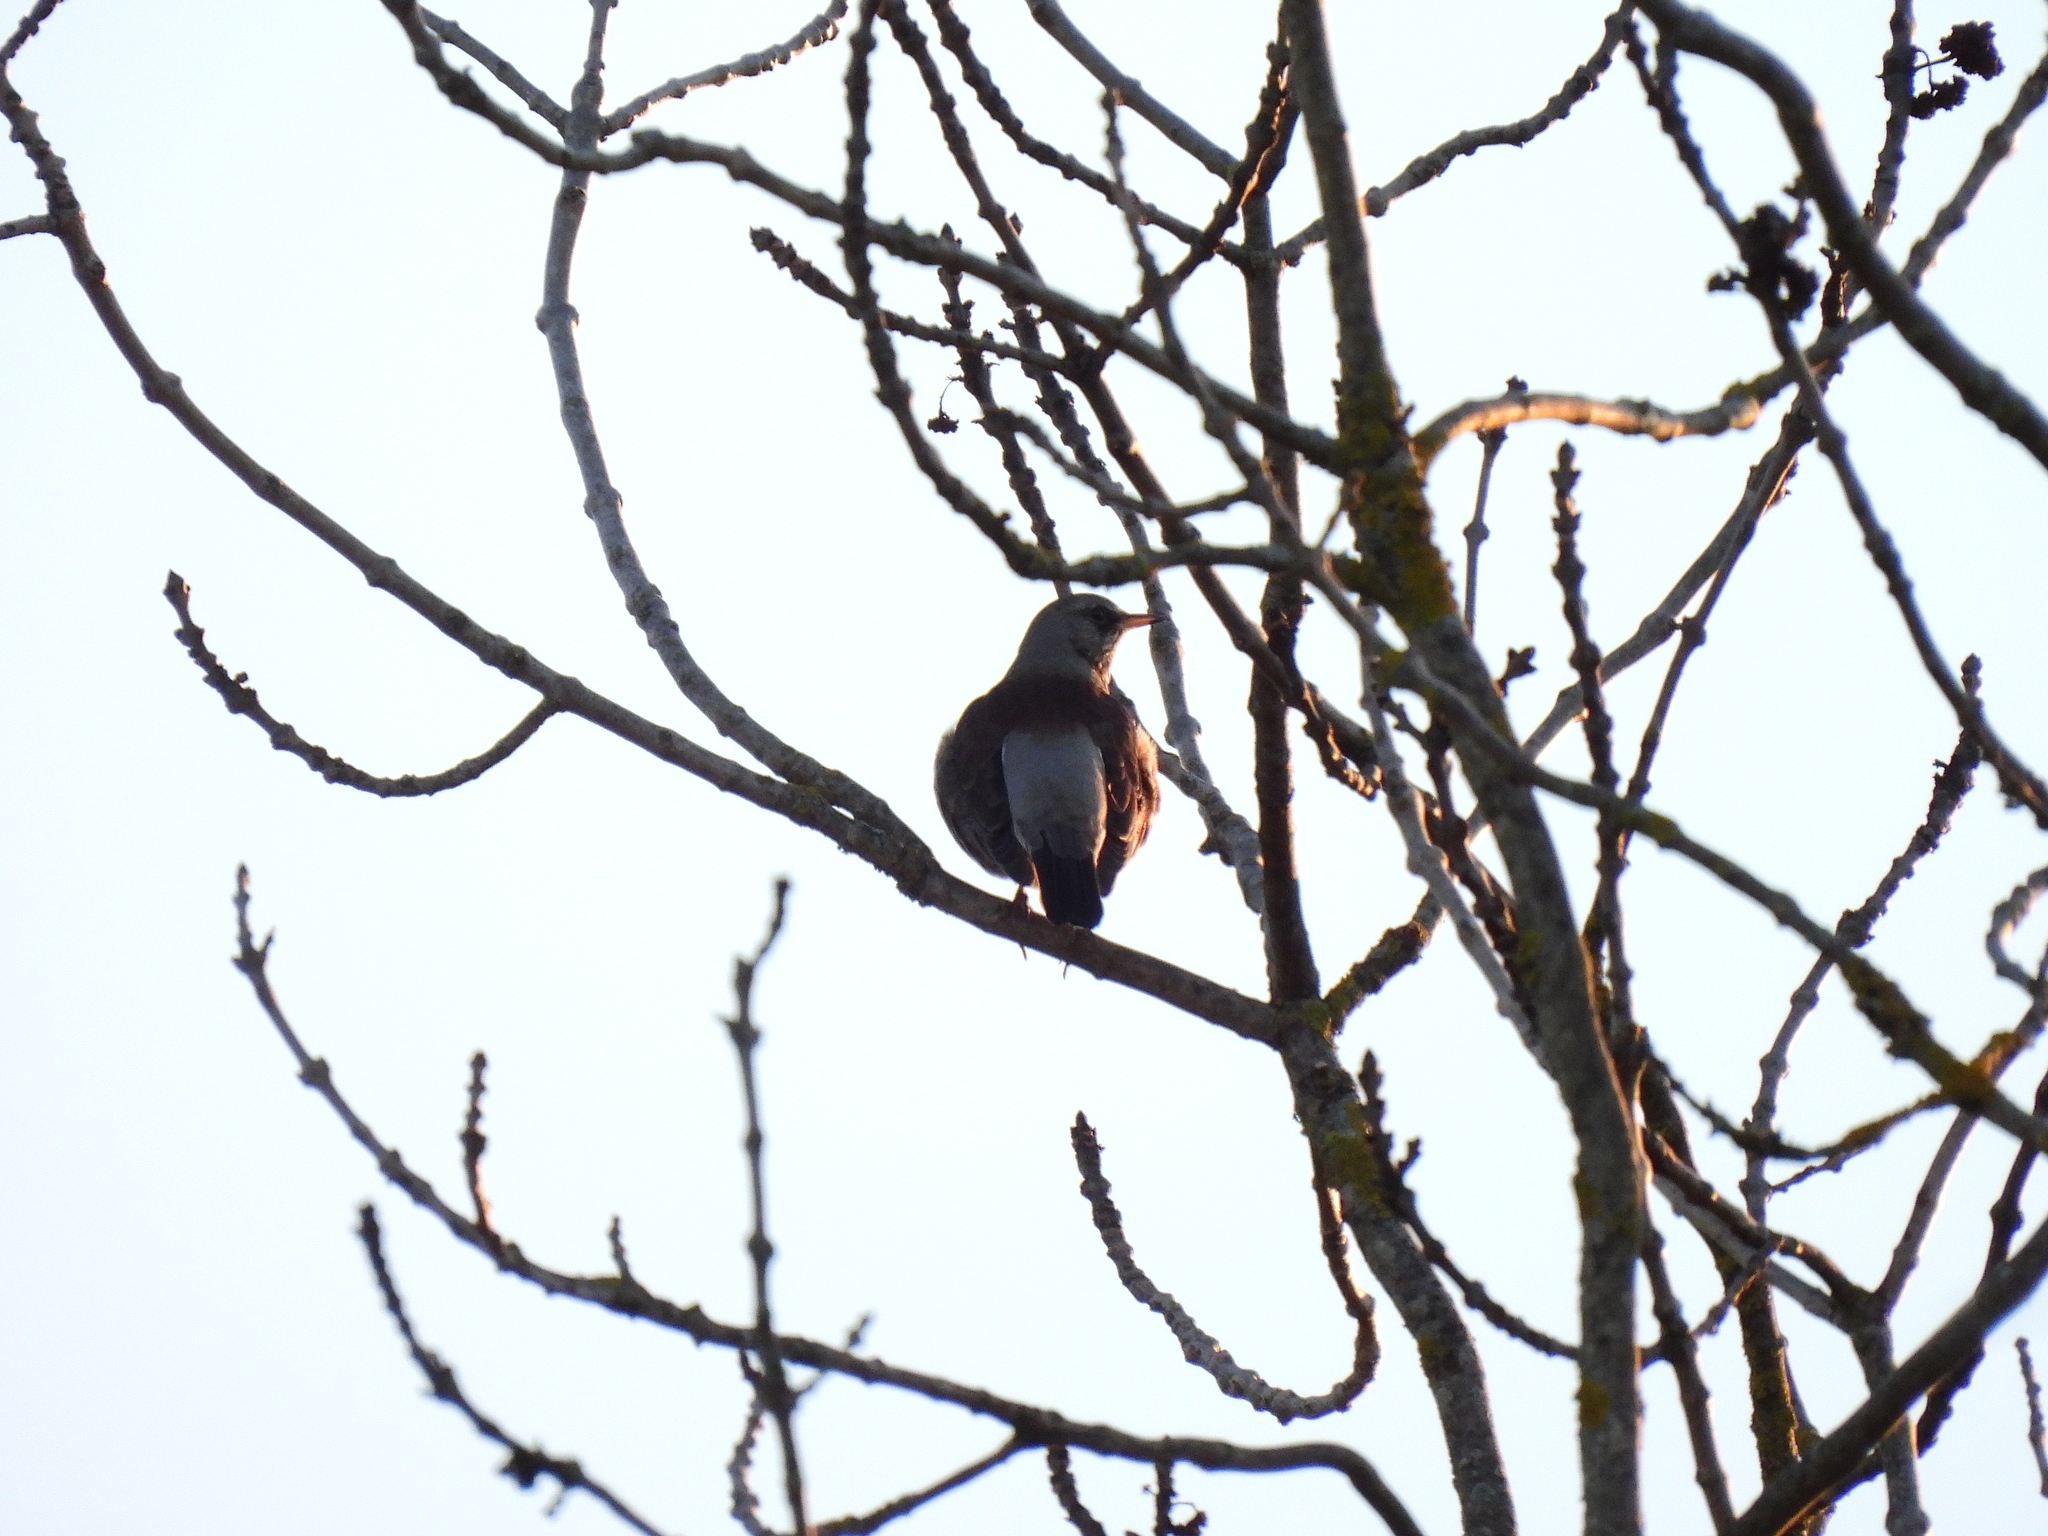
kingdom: Animalia
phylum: Chordata
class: Aves
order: Passeriformes
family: Turdidae
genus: Turdus
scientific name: Turdus pilaris
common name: Fieldfare
